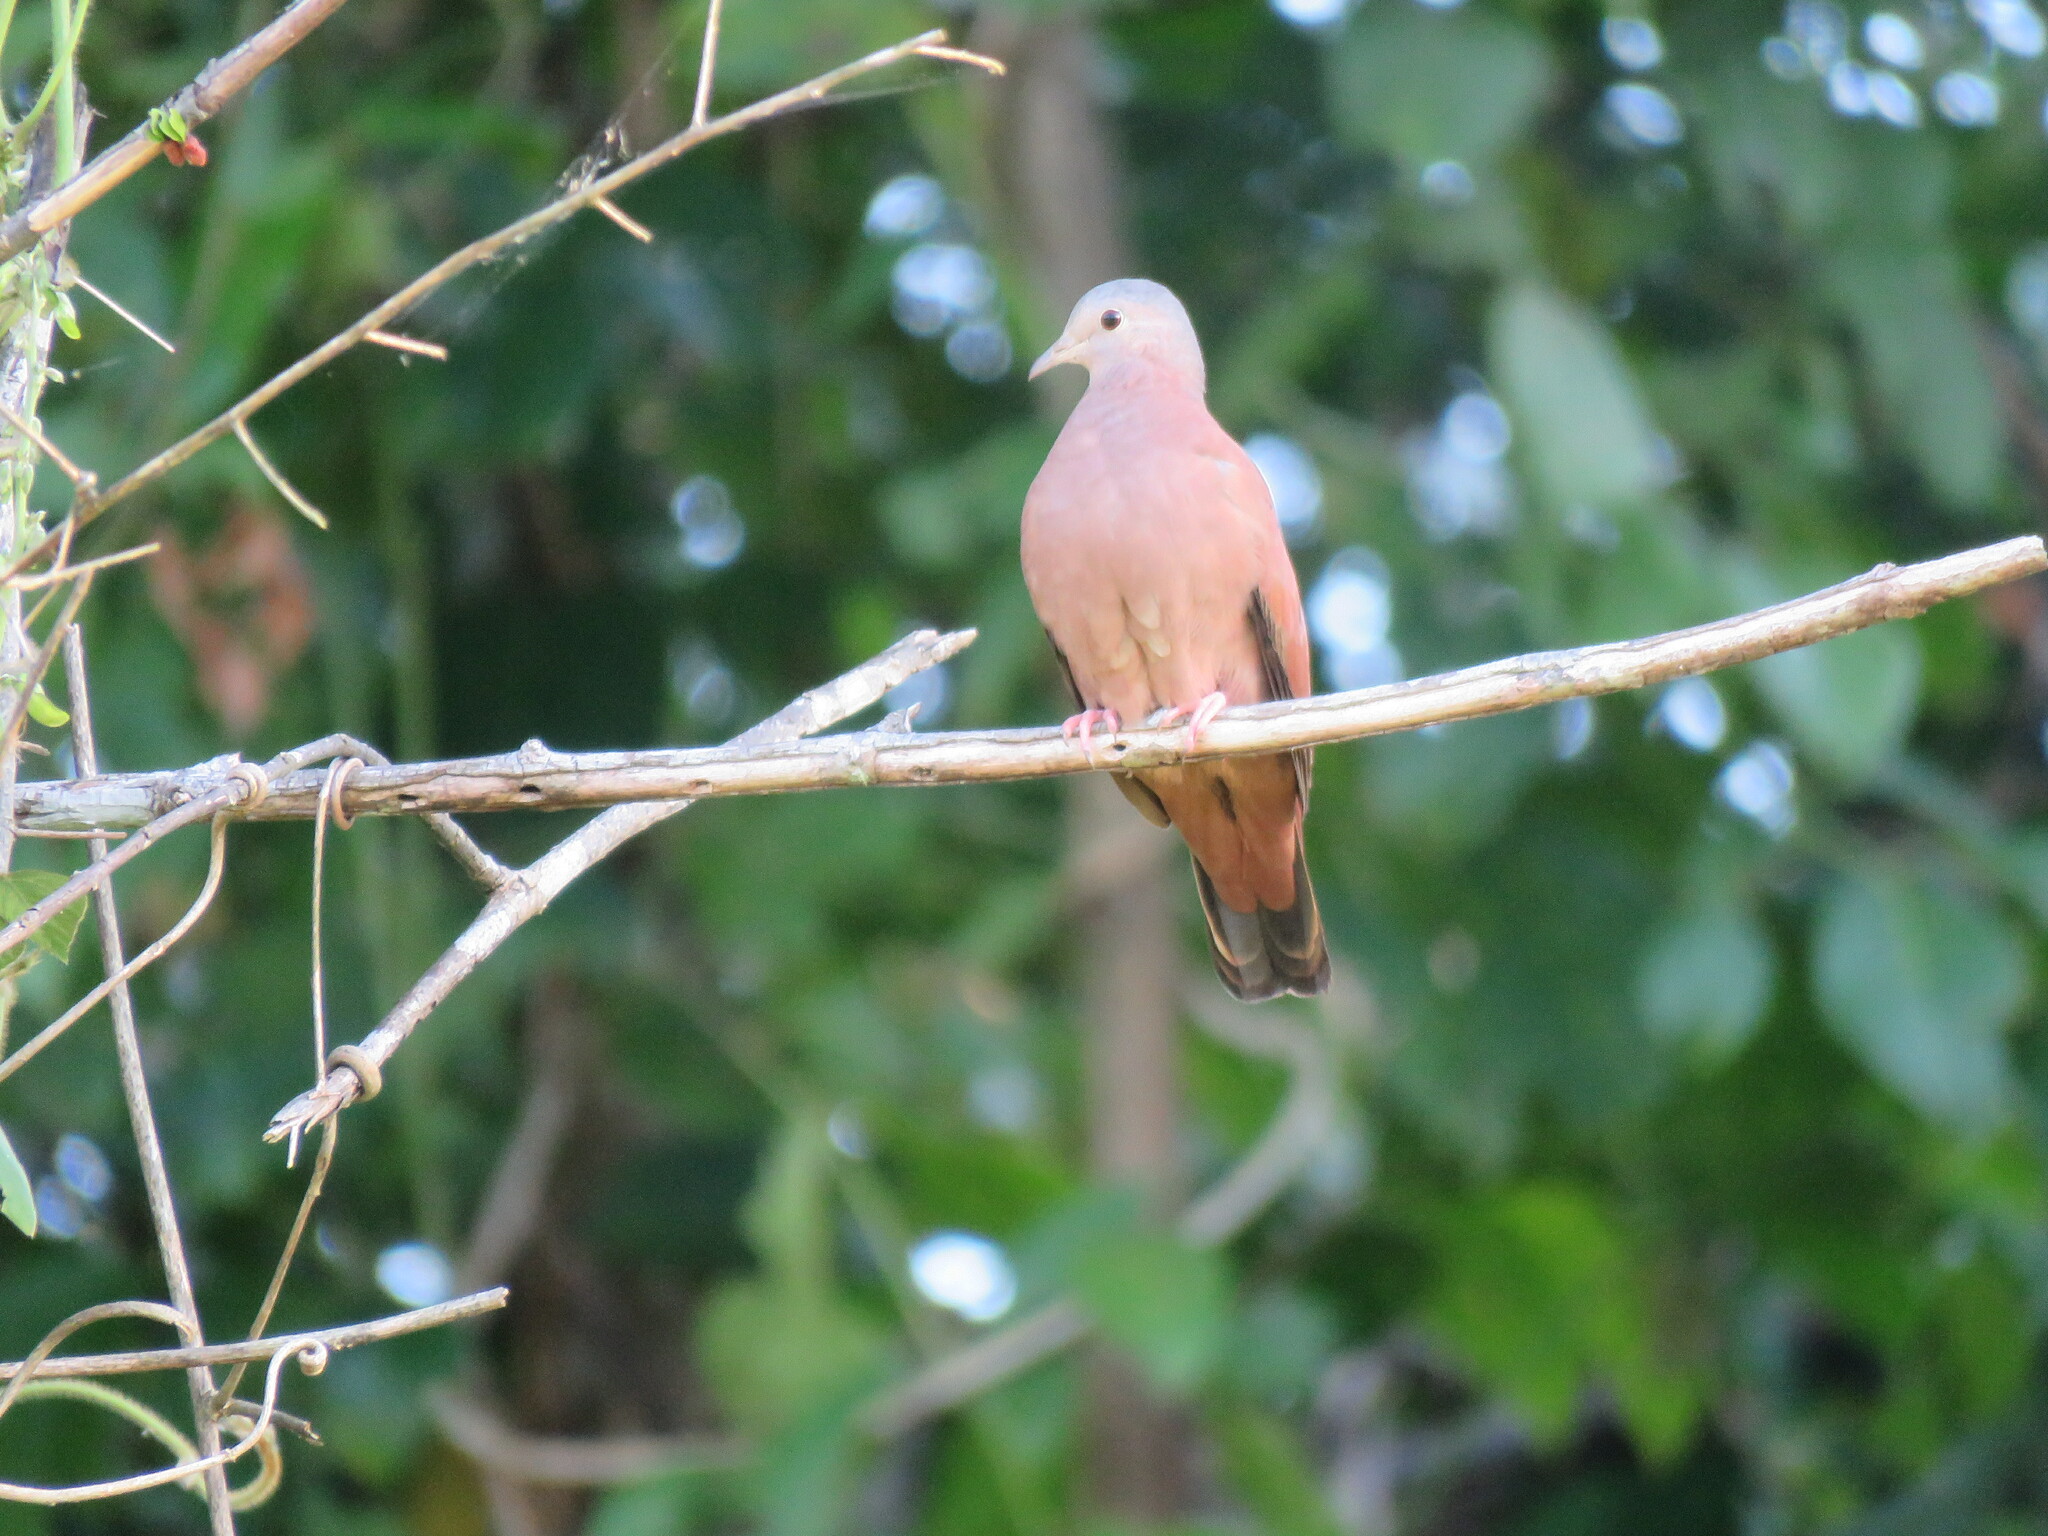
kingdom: Animalia
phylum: Chordata
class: Aves
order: Columbiformes
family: Columbidae
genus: Columbina
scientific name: Columbina talpacoti
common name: Ruddy ground dove
